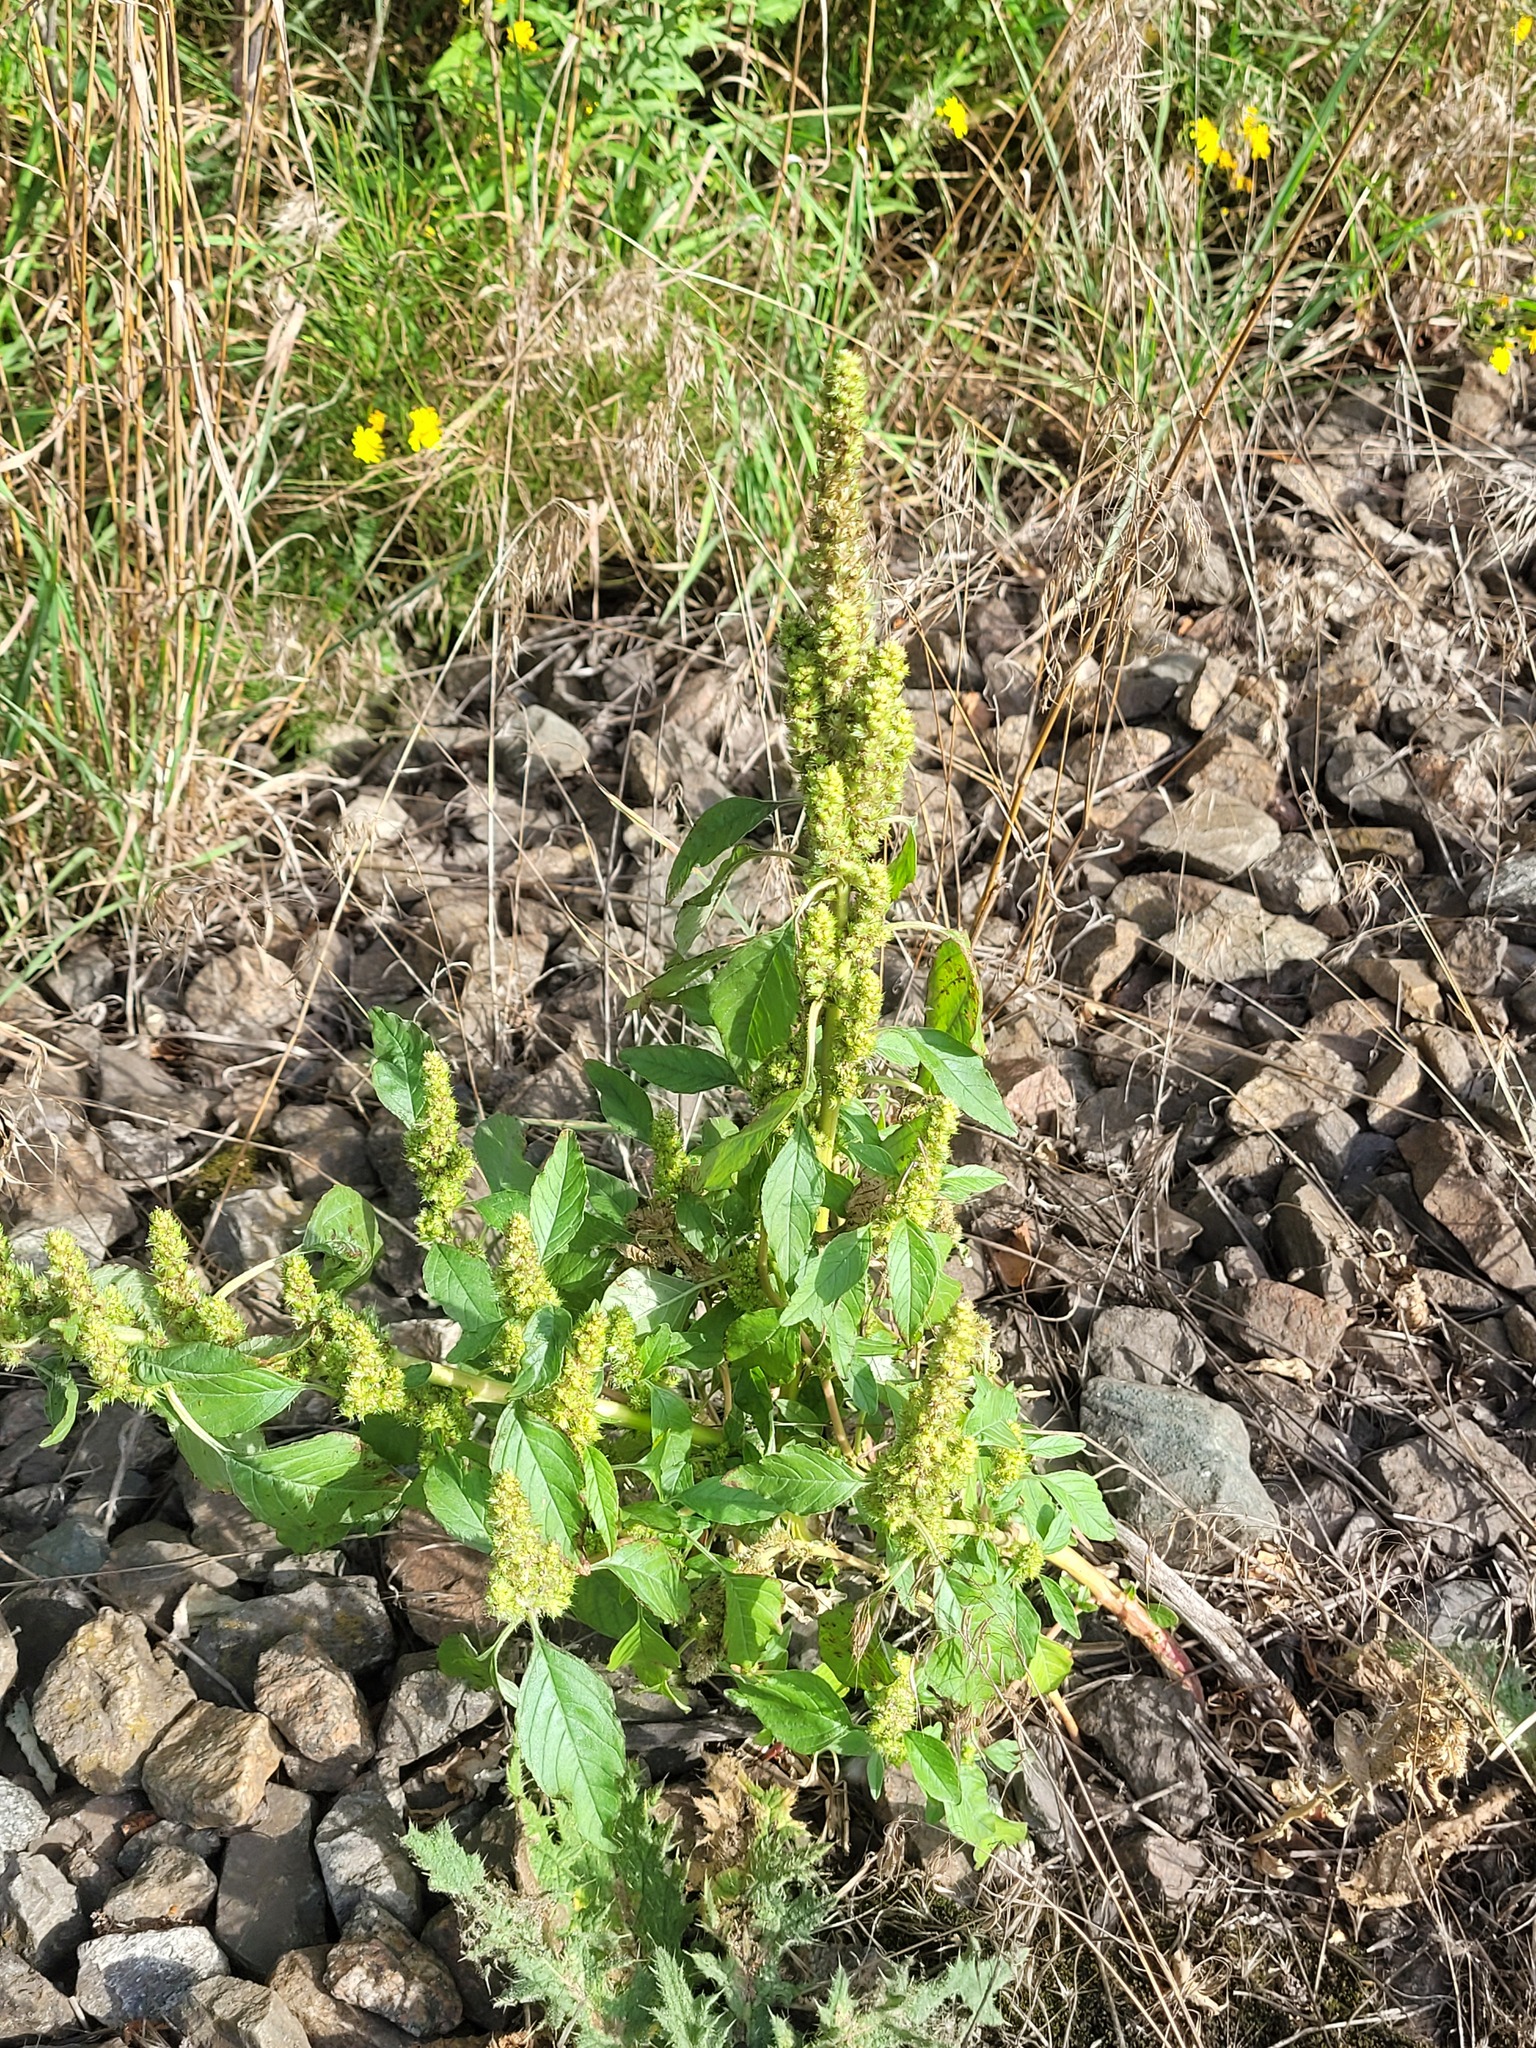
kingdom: Plantae
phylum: Tracheophyta
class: Magnoliopsida
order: Caryophyllales
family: Amaranthaceae
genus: Amaranthus
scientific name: Amaranthus retroflexus
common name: Redroot amaranth
